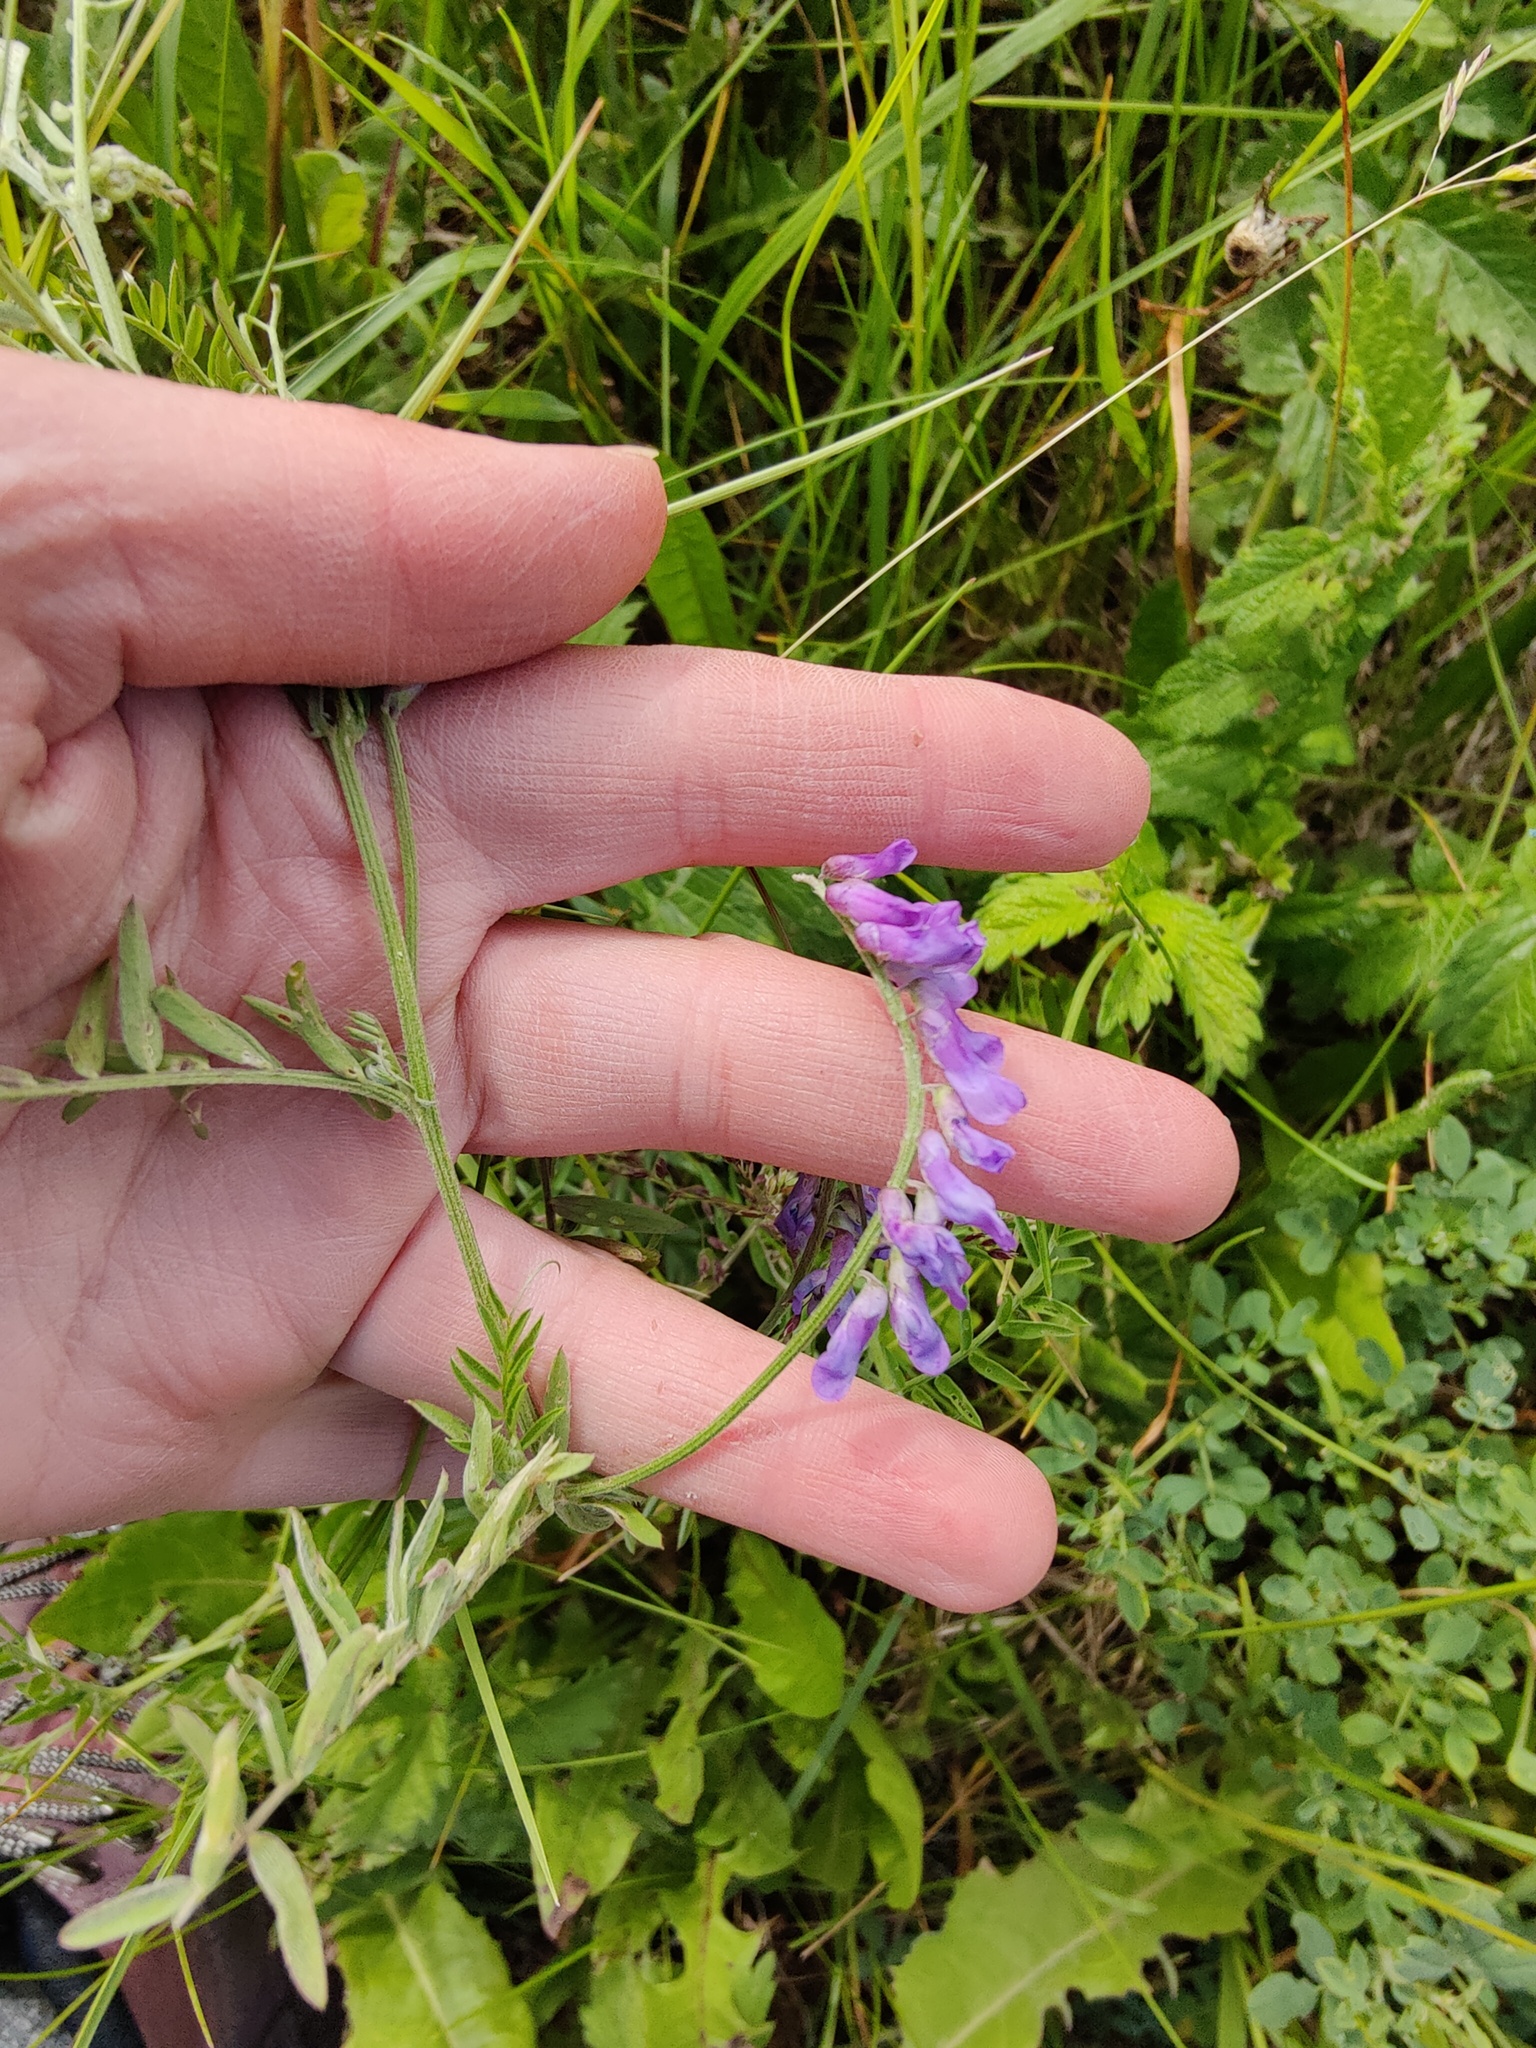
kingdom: Plantae
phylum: Tracheophyta
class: Magnoliopsida
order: Fabales
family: Fabaceae
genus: Vicia
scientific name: Vicia cracca
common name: Bird vetch
